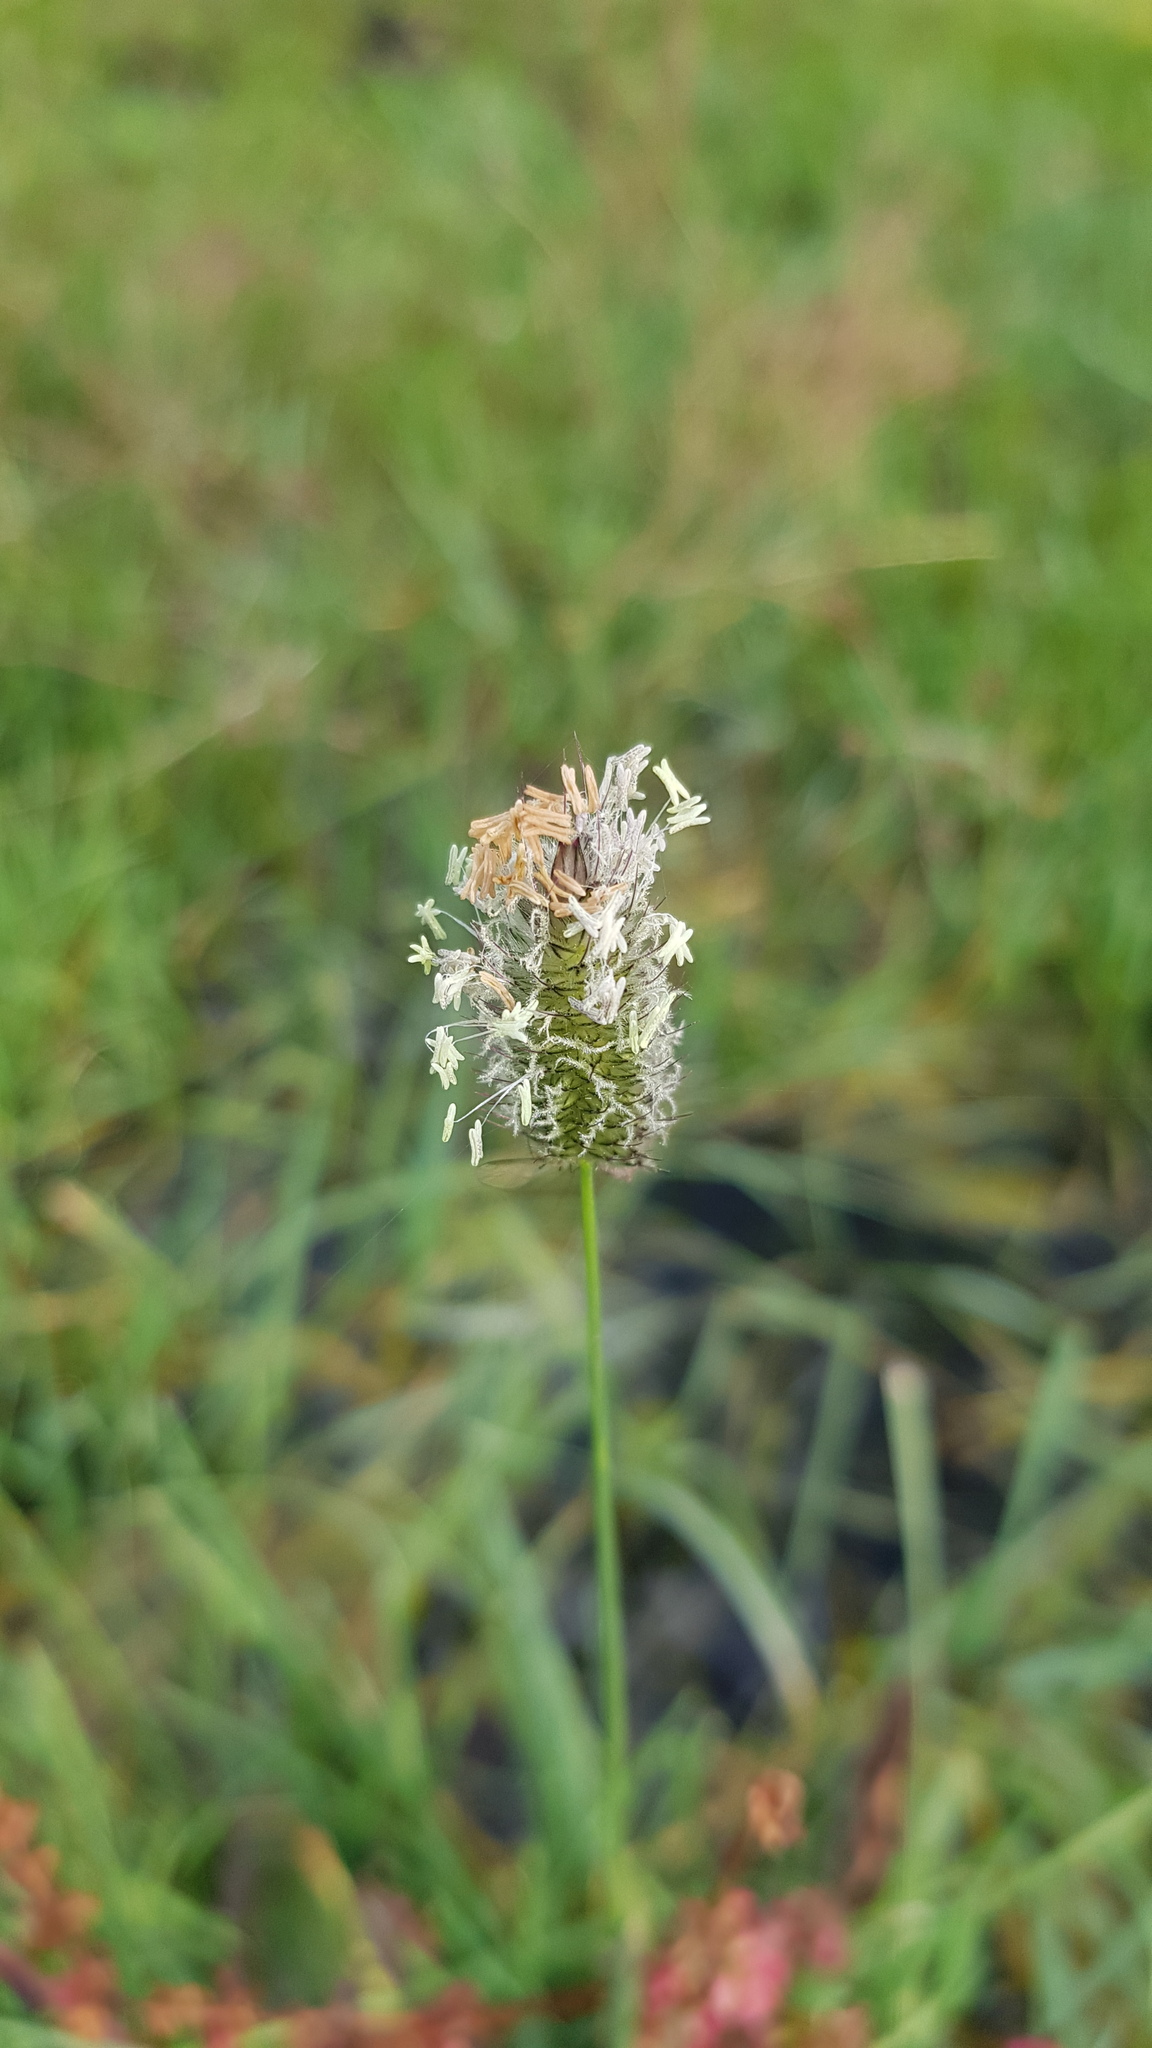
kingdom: Plantae
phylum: Tracheophyta
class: Liliopsida
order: Poales
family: Poaceae
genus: Alopecurus
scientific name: Alopecurus brachystachyus
